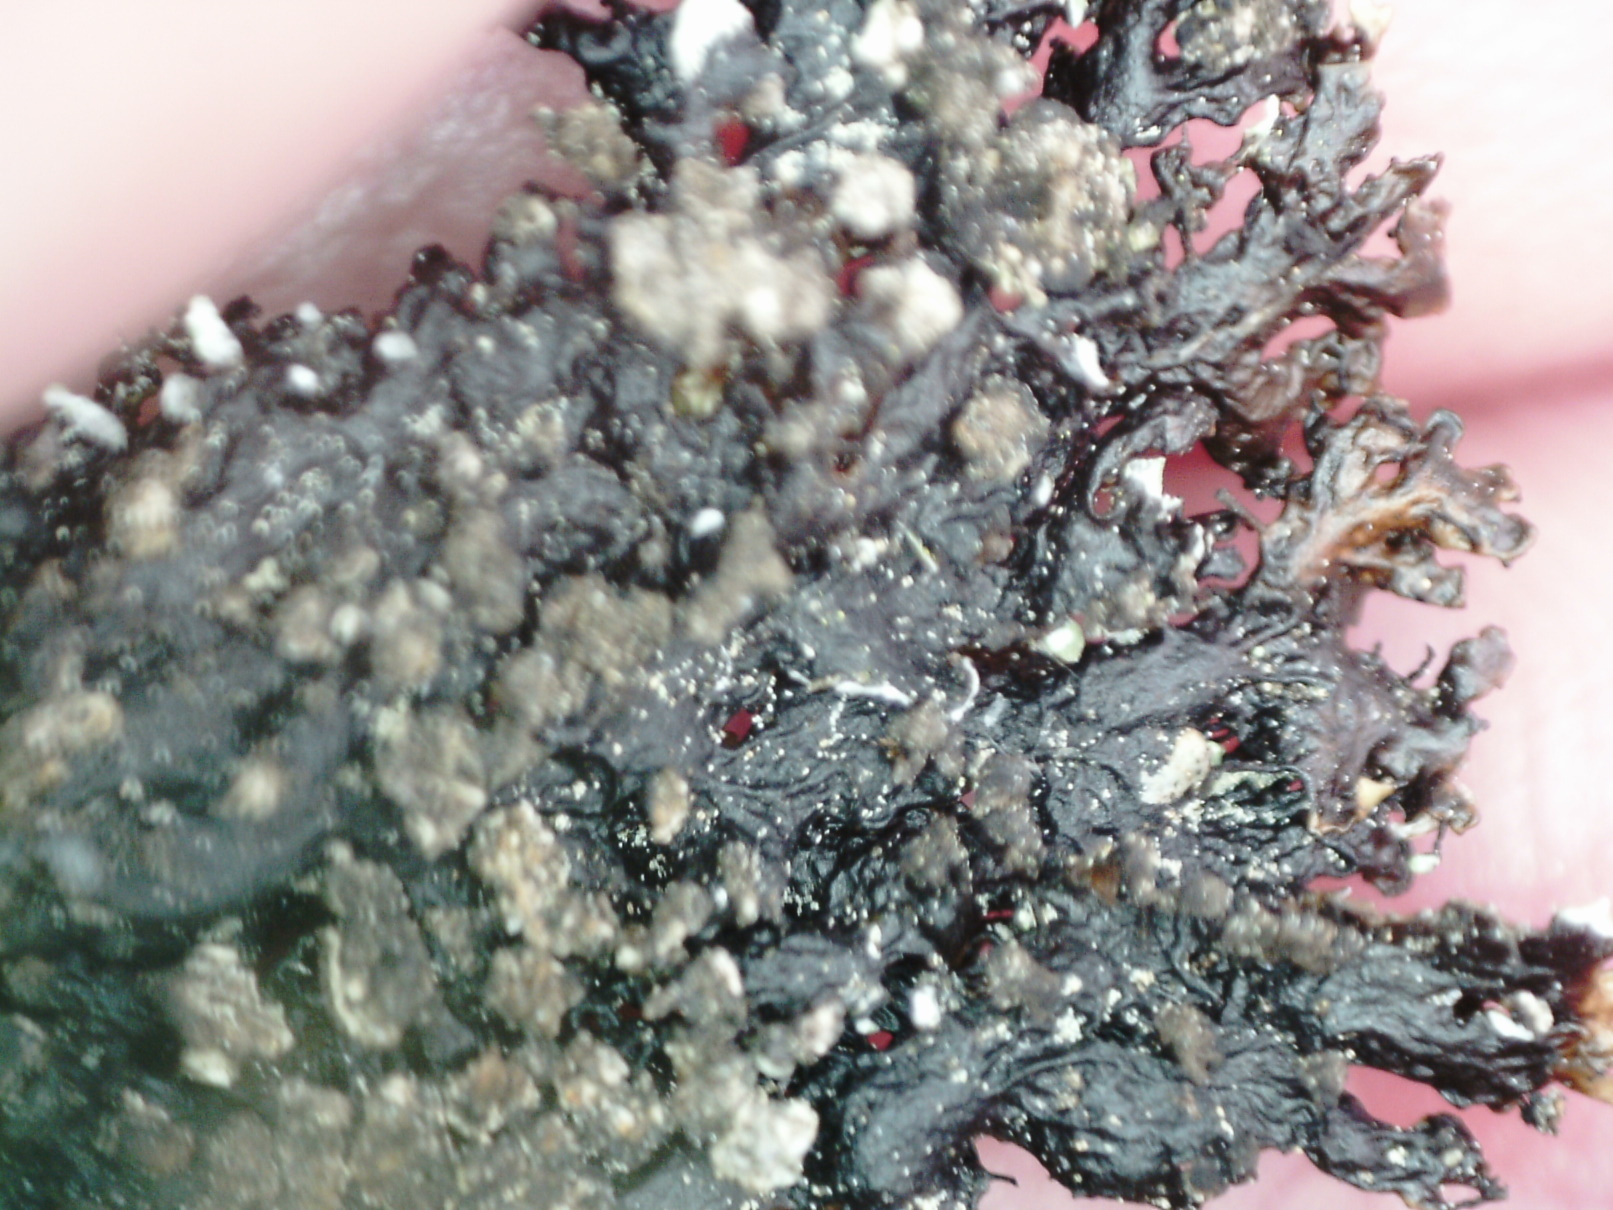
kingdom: Fungi
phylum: Ascomycota
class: Lecanoromycetes
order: Lecanorales
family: Parmeliaceae
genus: Melanelia
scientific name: Melanelia hepatizon
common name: Rimmed camouflage lichen
